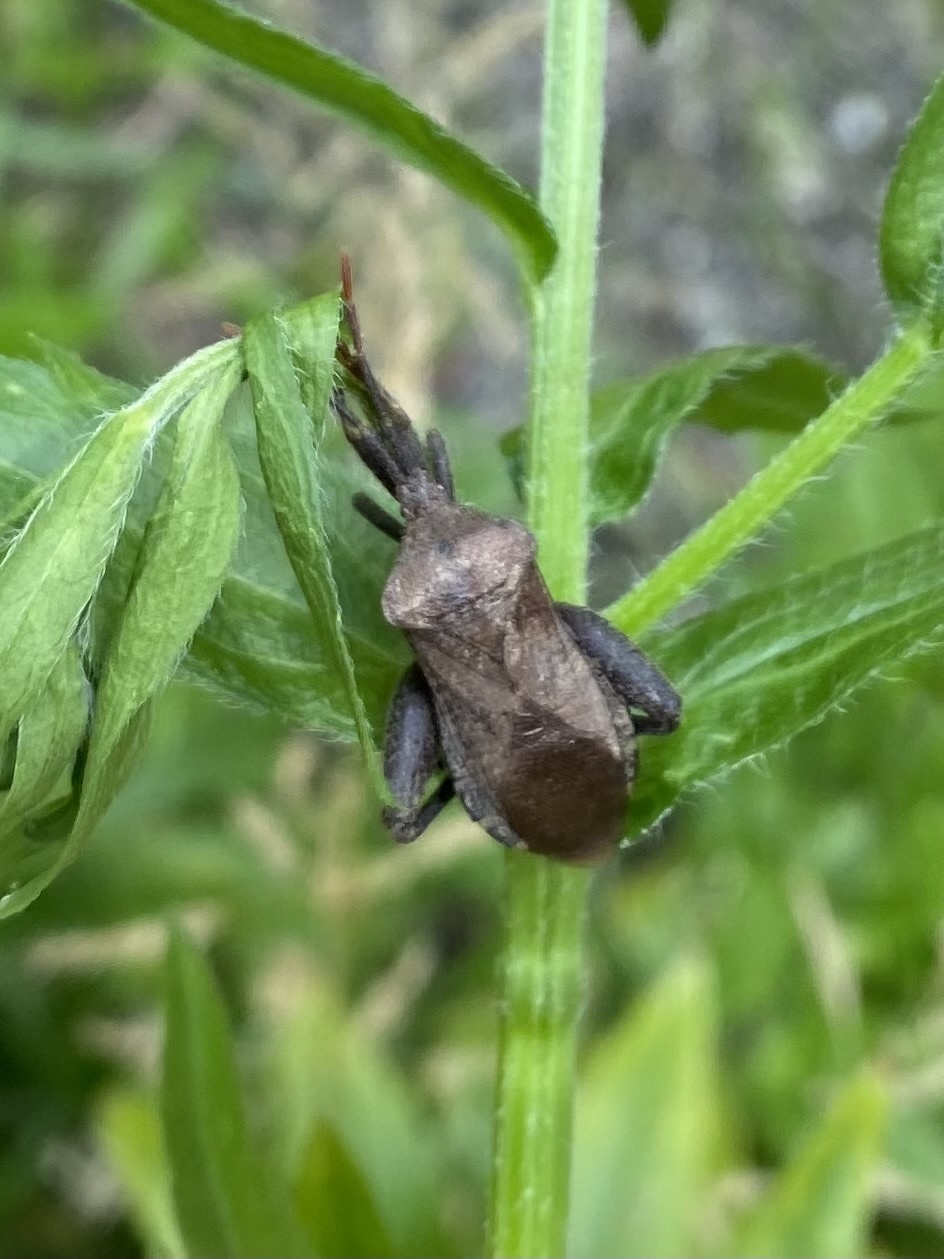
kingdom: Animalia
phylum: Arthropoda
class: Insecta
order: Hemiptera
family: Coreidae
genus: Piezogaster
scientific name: Piezogaster calcarator
